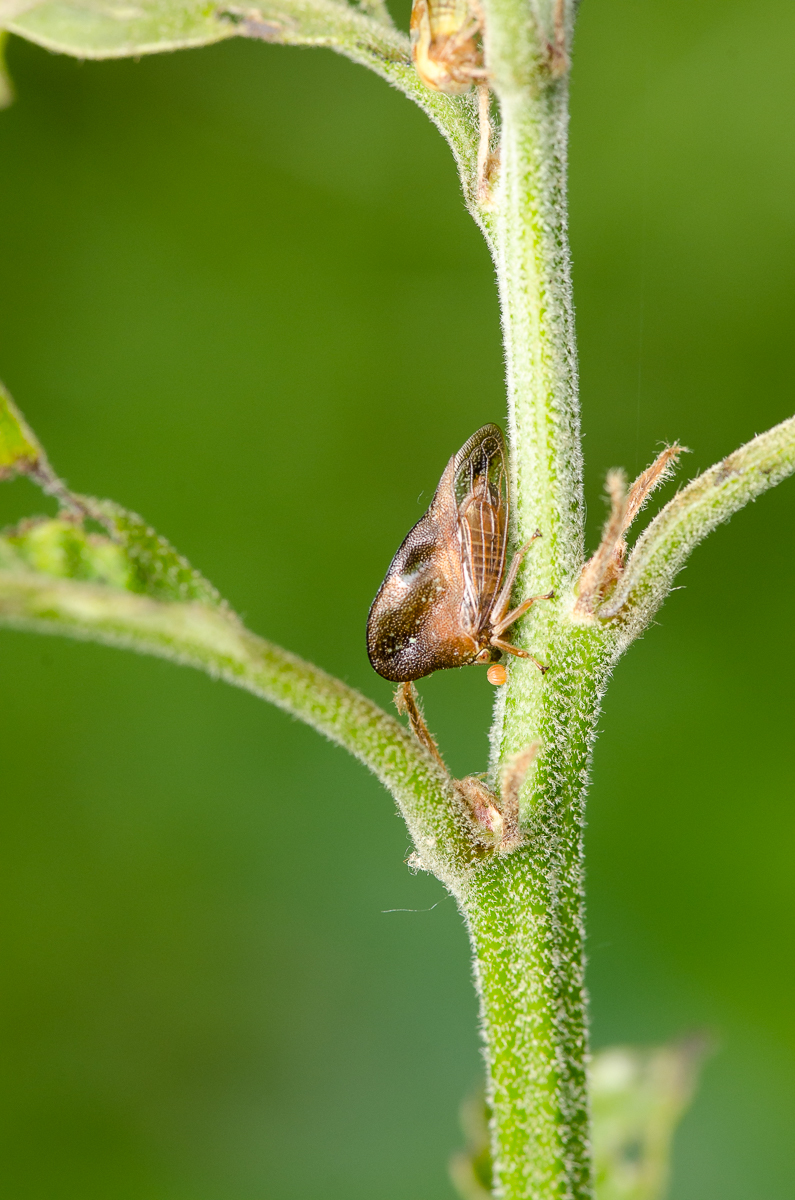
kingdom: Animalia
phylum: Arthropoda
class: Insecta
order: Hemiptera
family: Membracidae
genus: Smilia
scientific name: Smilia camelus
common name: Camel treehopper
